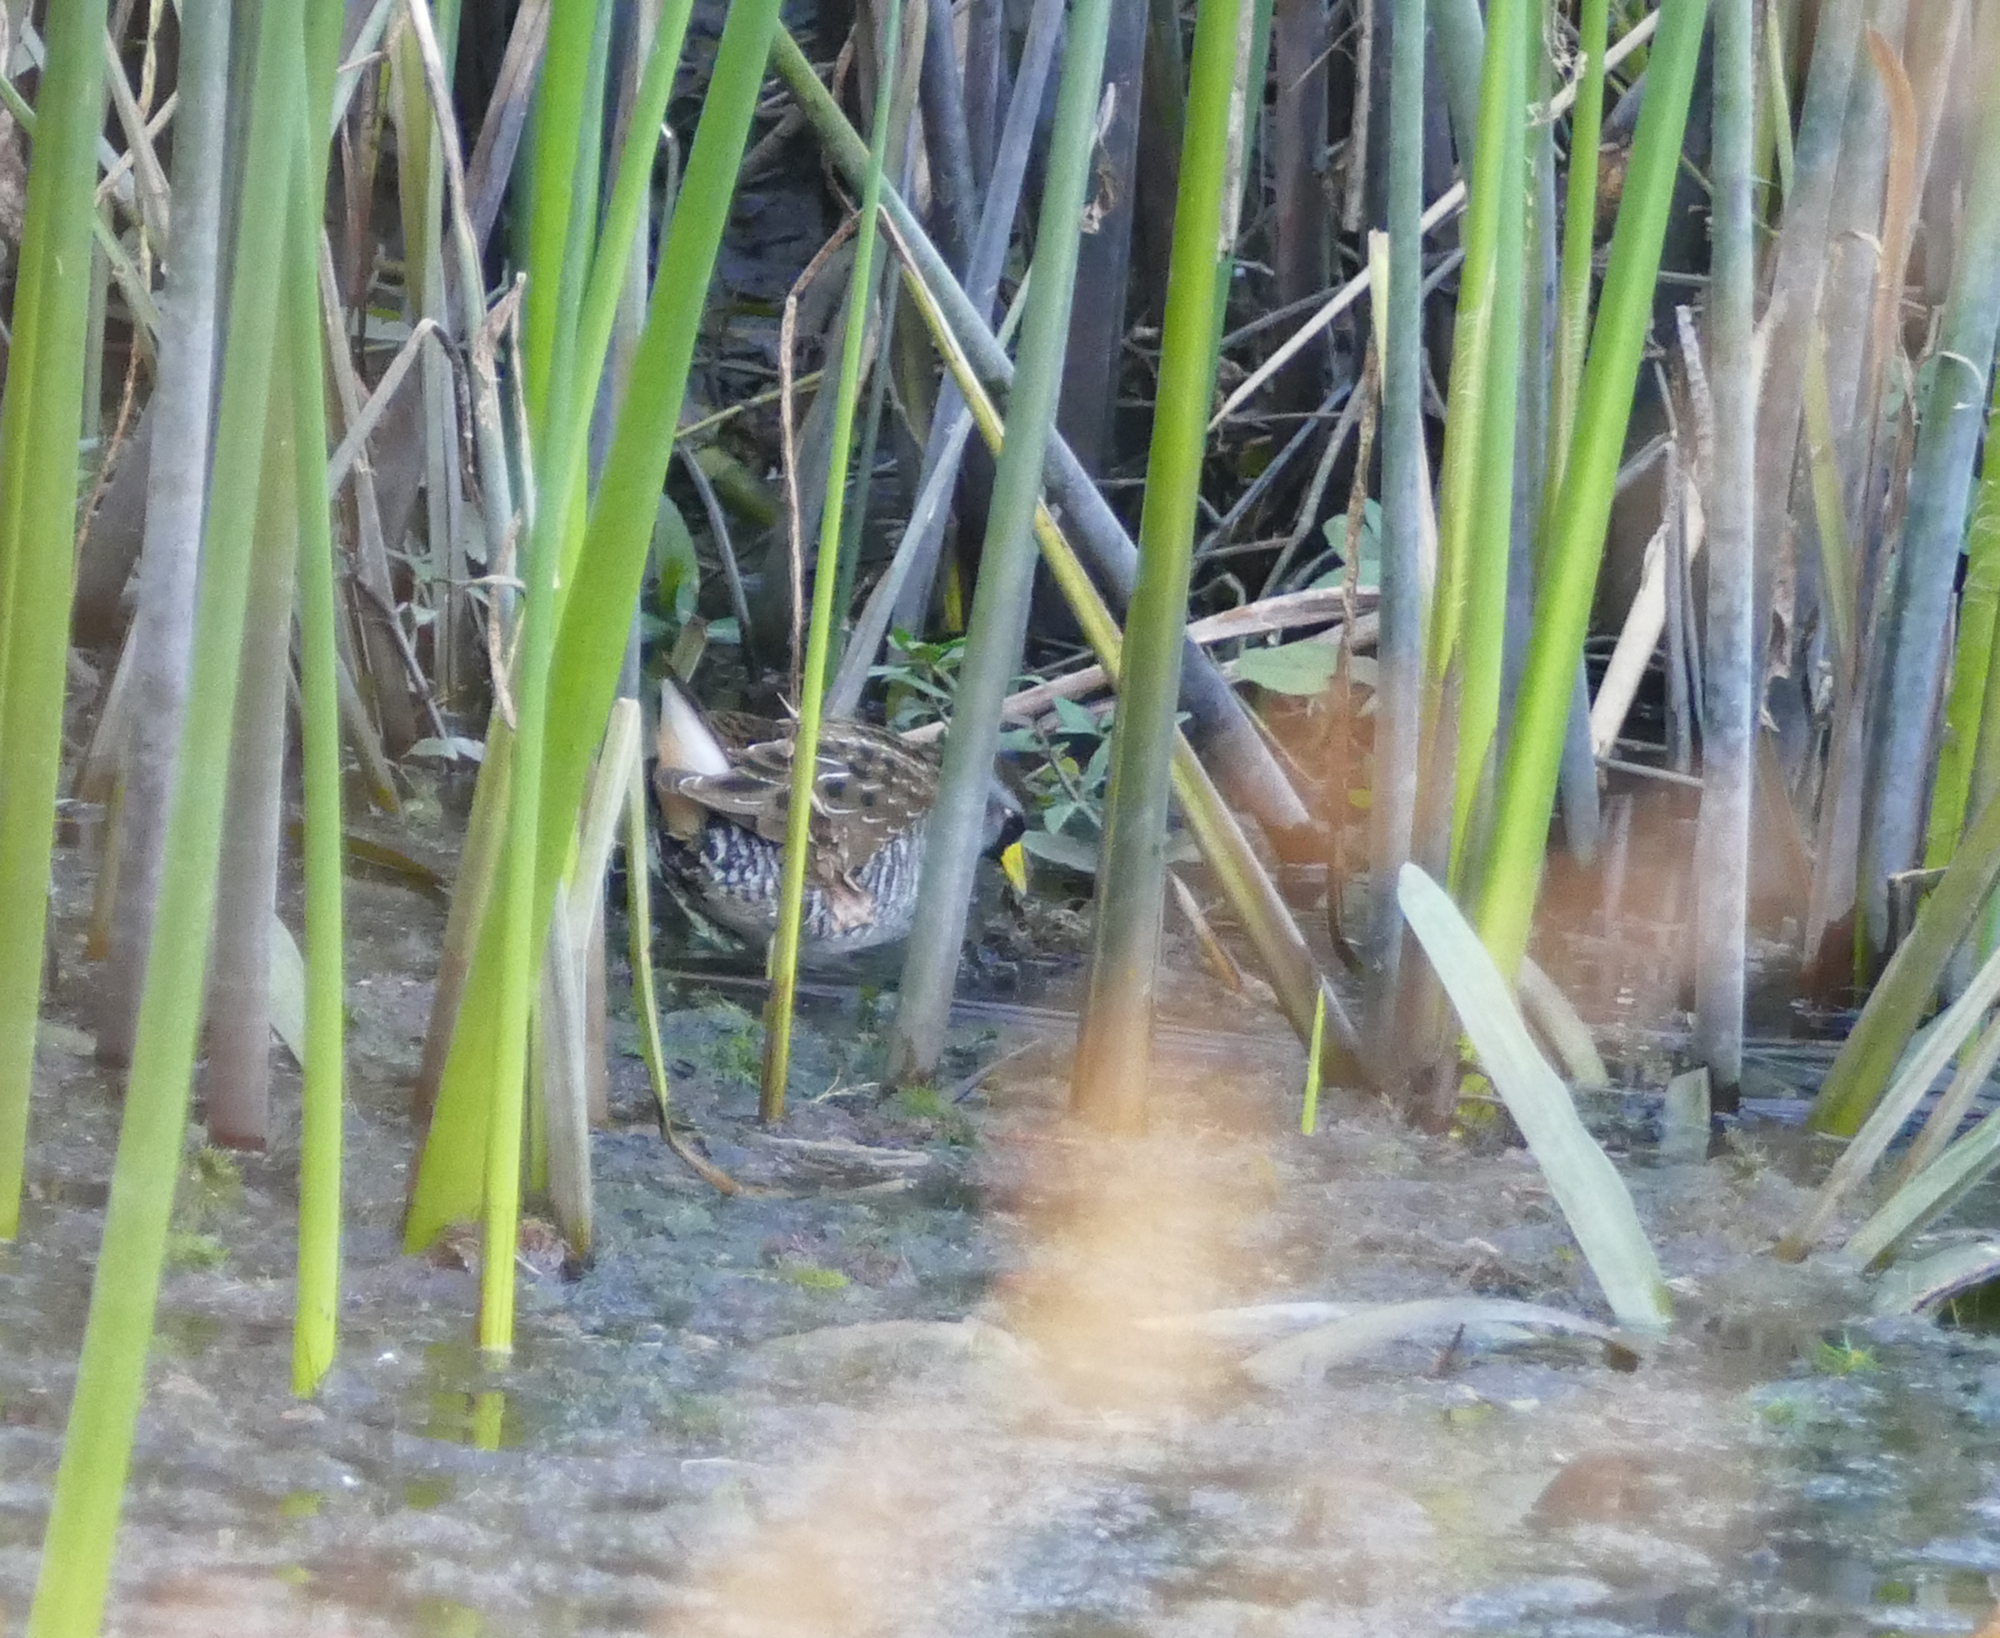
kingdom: Animalia
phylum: Chordata
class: Aves
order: Gruiformes
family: Rallidae
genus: Porzana
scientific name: Porzana carolina
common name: Sora
